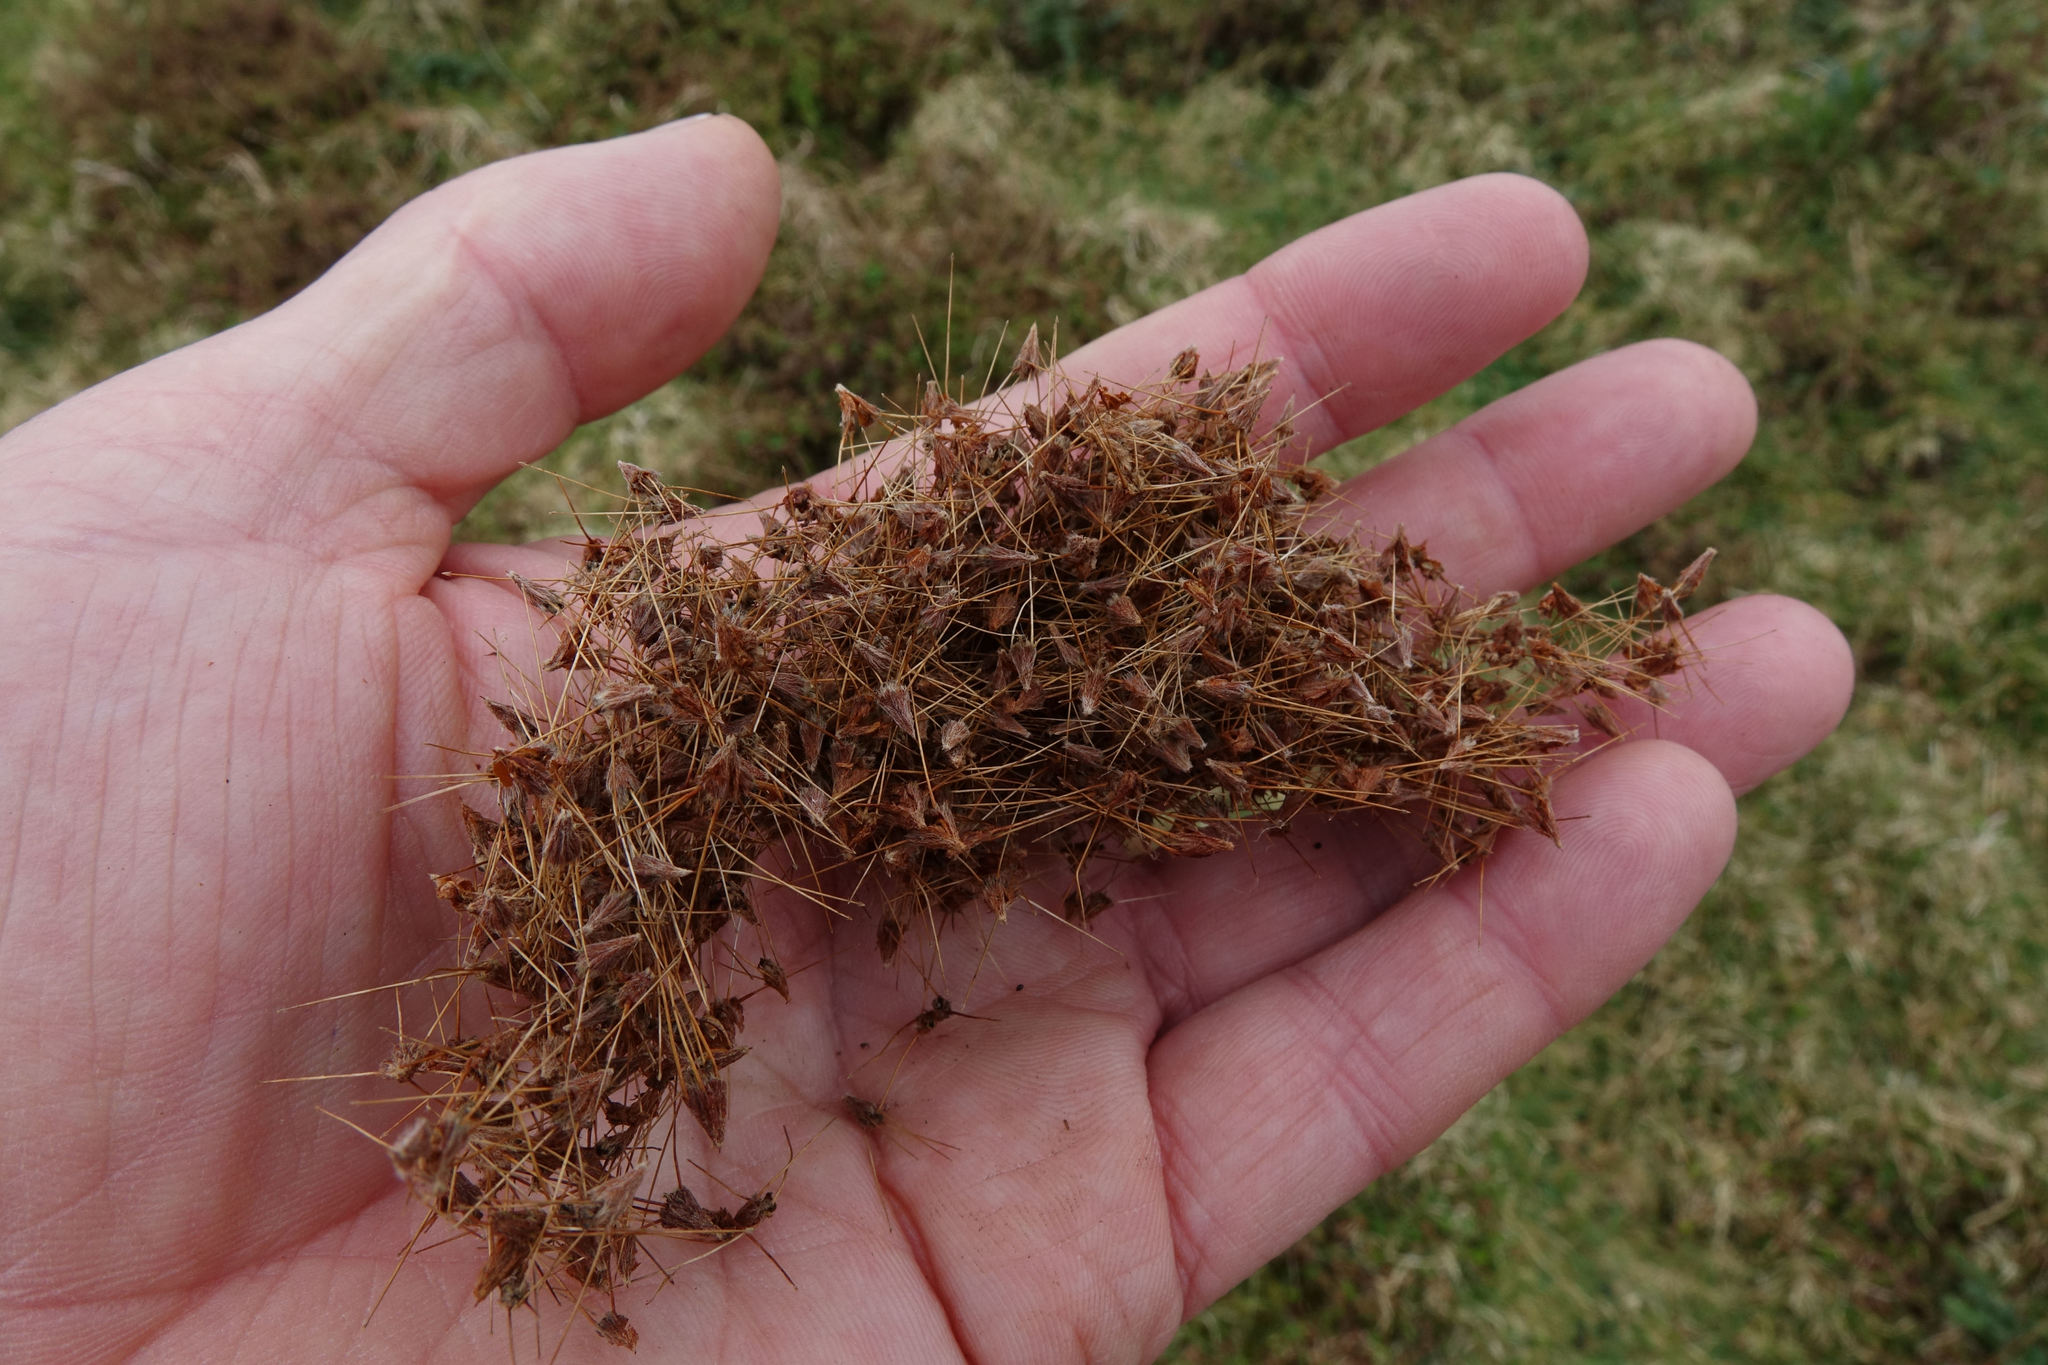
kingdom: Plantae
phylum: Tracheophyta
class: Magnoliopsida
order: Rosales
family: Rosaceae
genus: Acaena
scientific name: Acaena novae-zelandiae
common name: Pirri-pirri-bur
